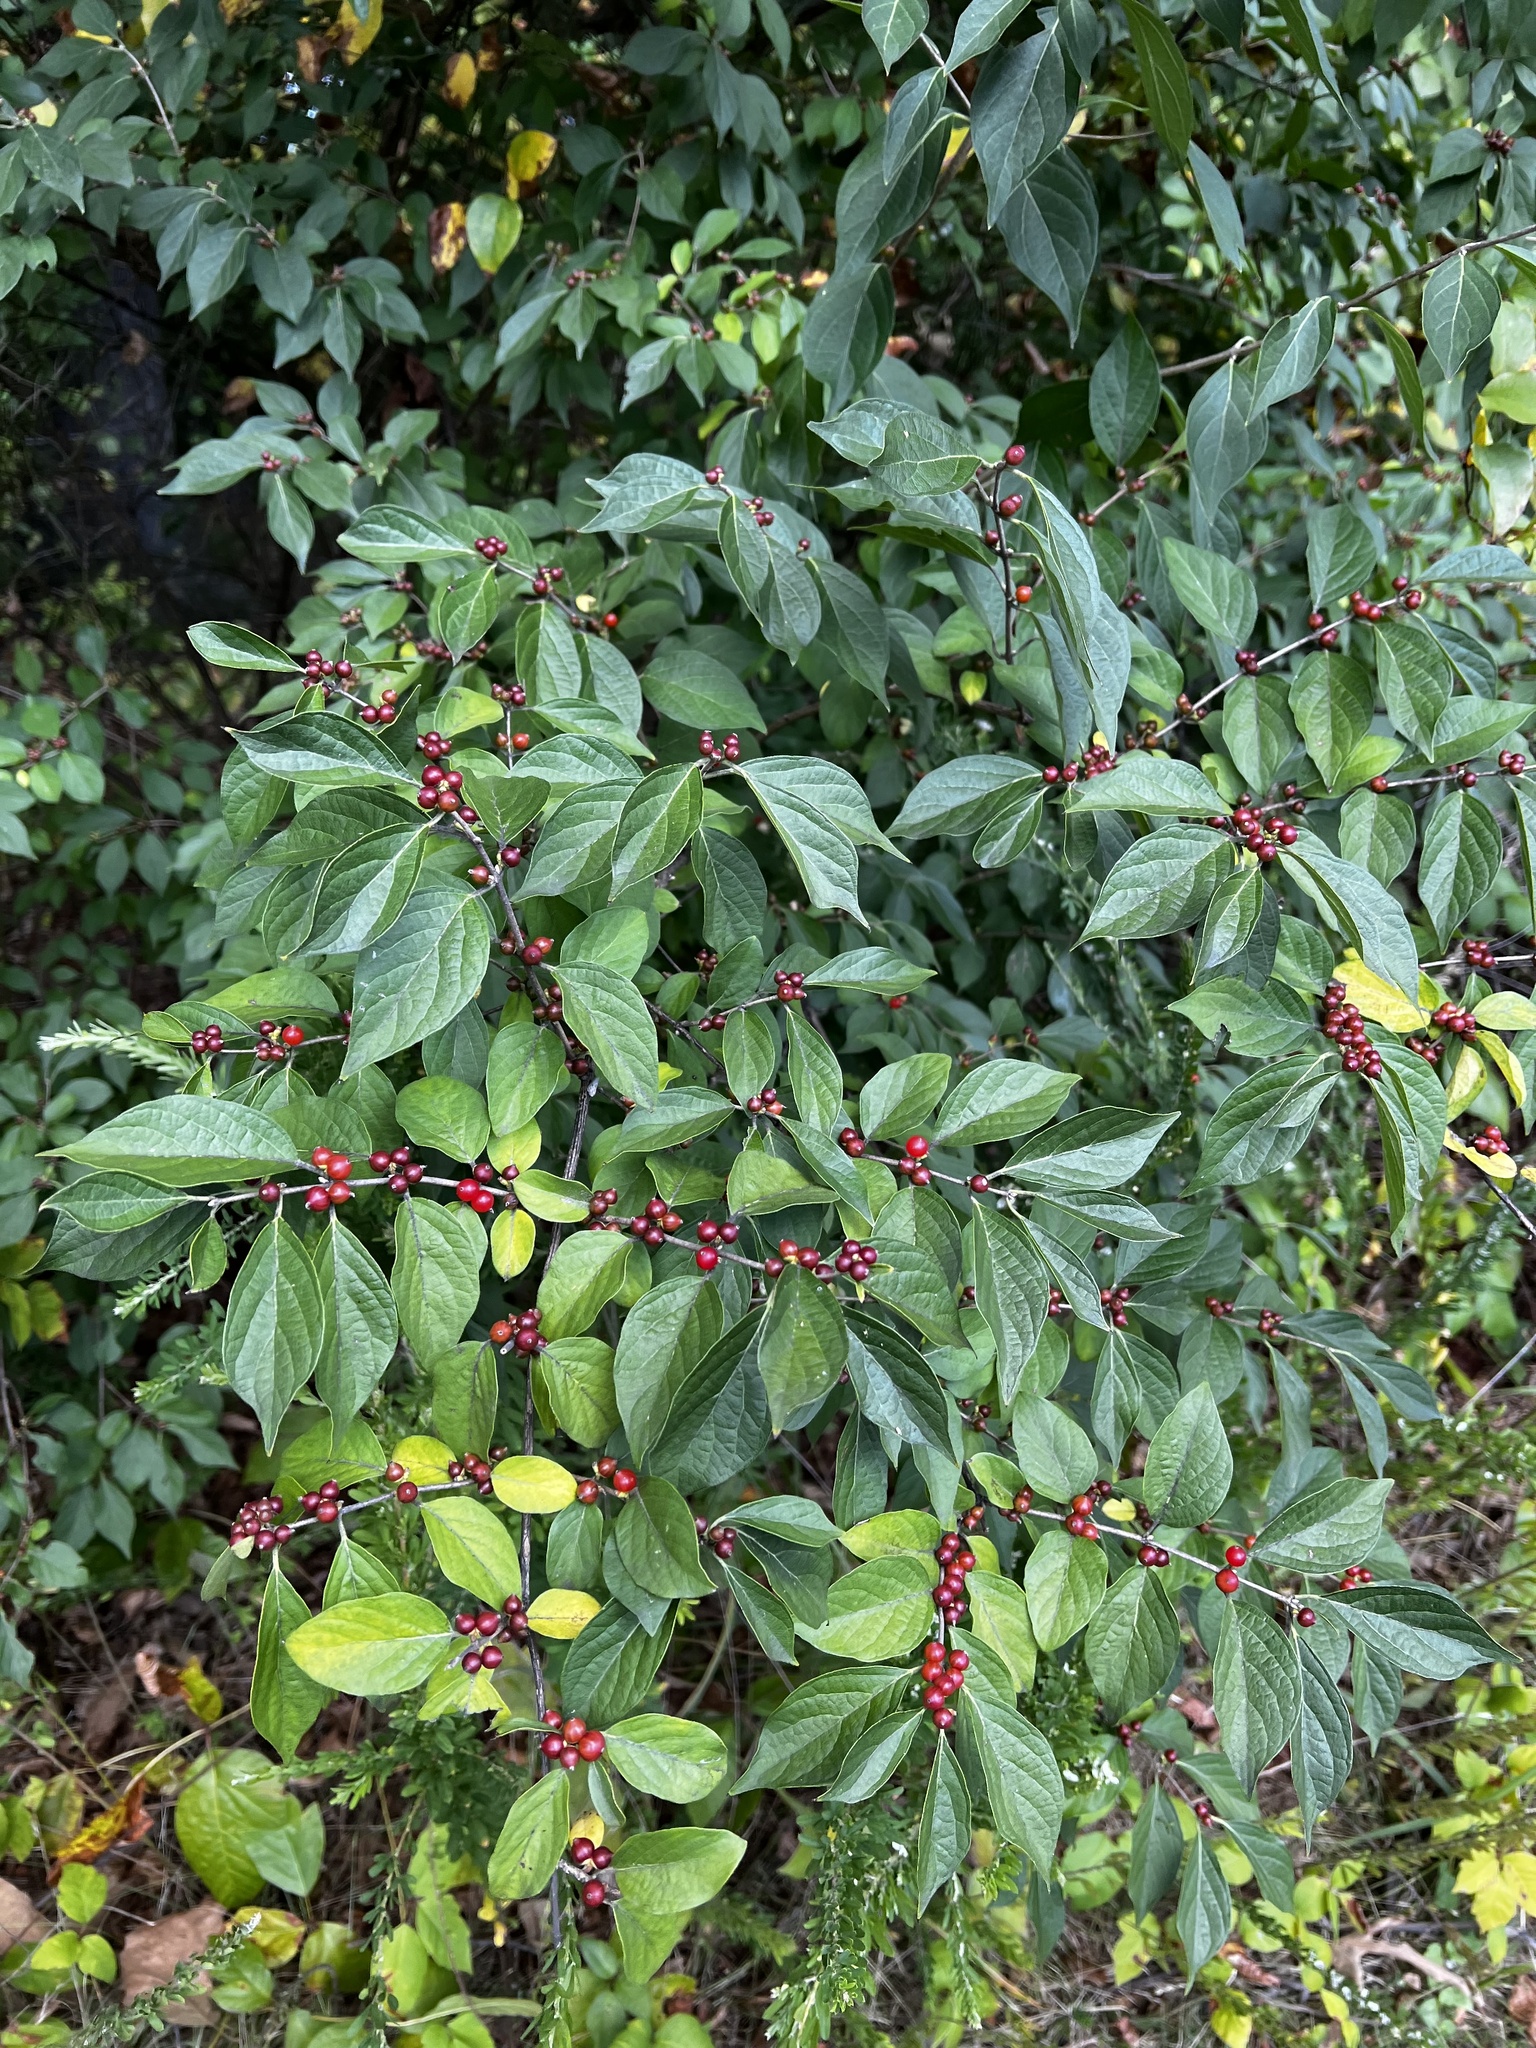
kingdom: Plantae
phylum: Tracheophyta
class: Magnoliopsida
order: Dipsacales
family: Caprifoliaceae
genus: Lonicera
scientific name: Lonicera maackii
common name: Amur honeysuckle
